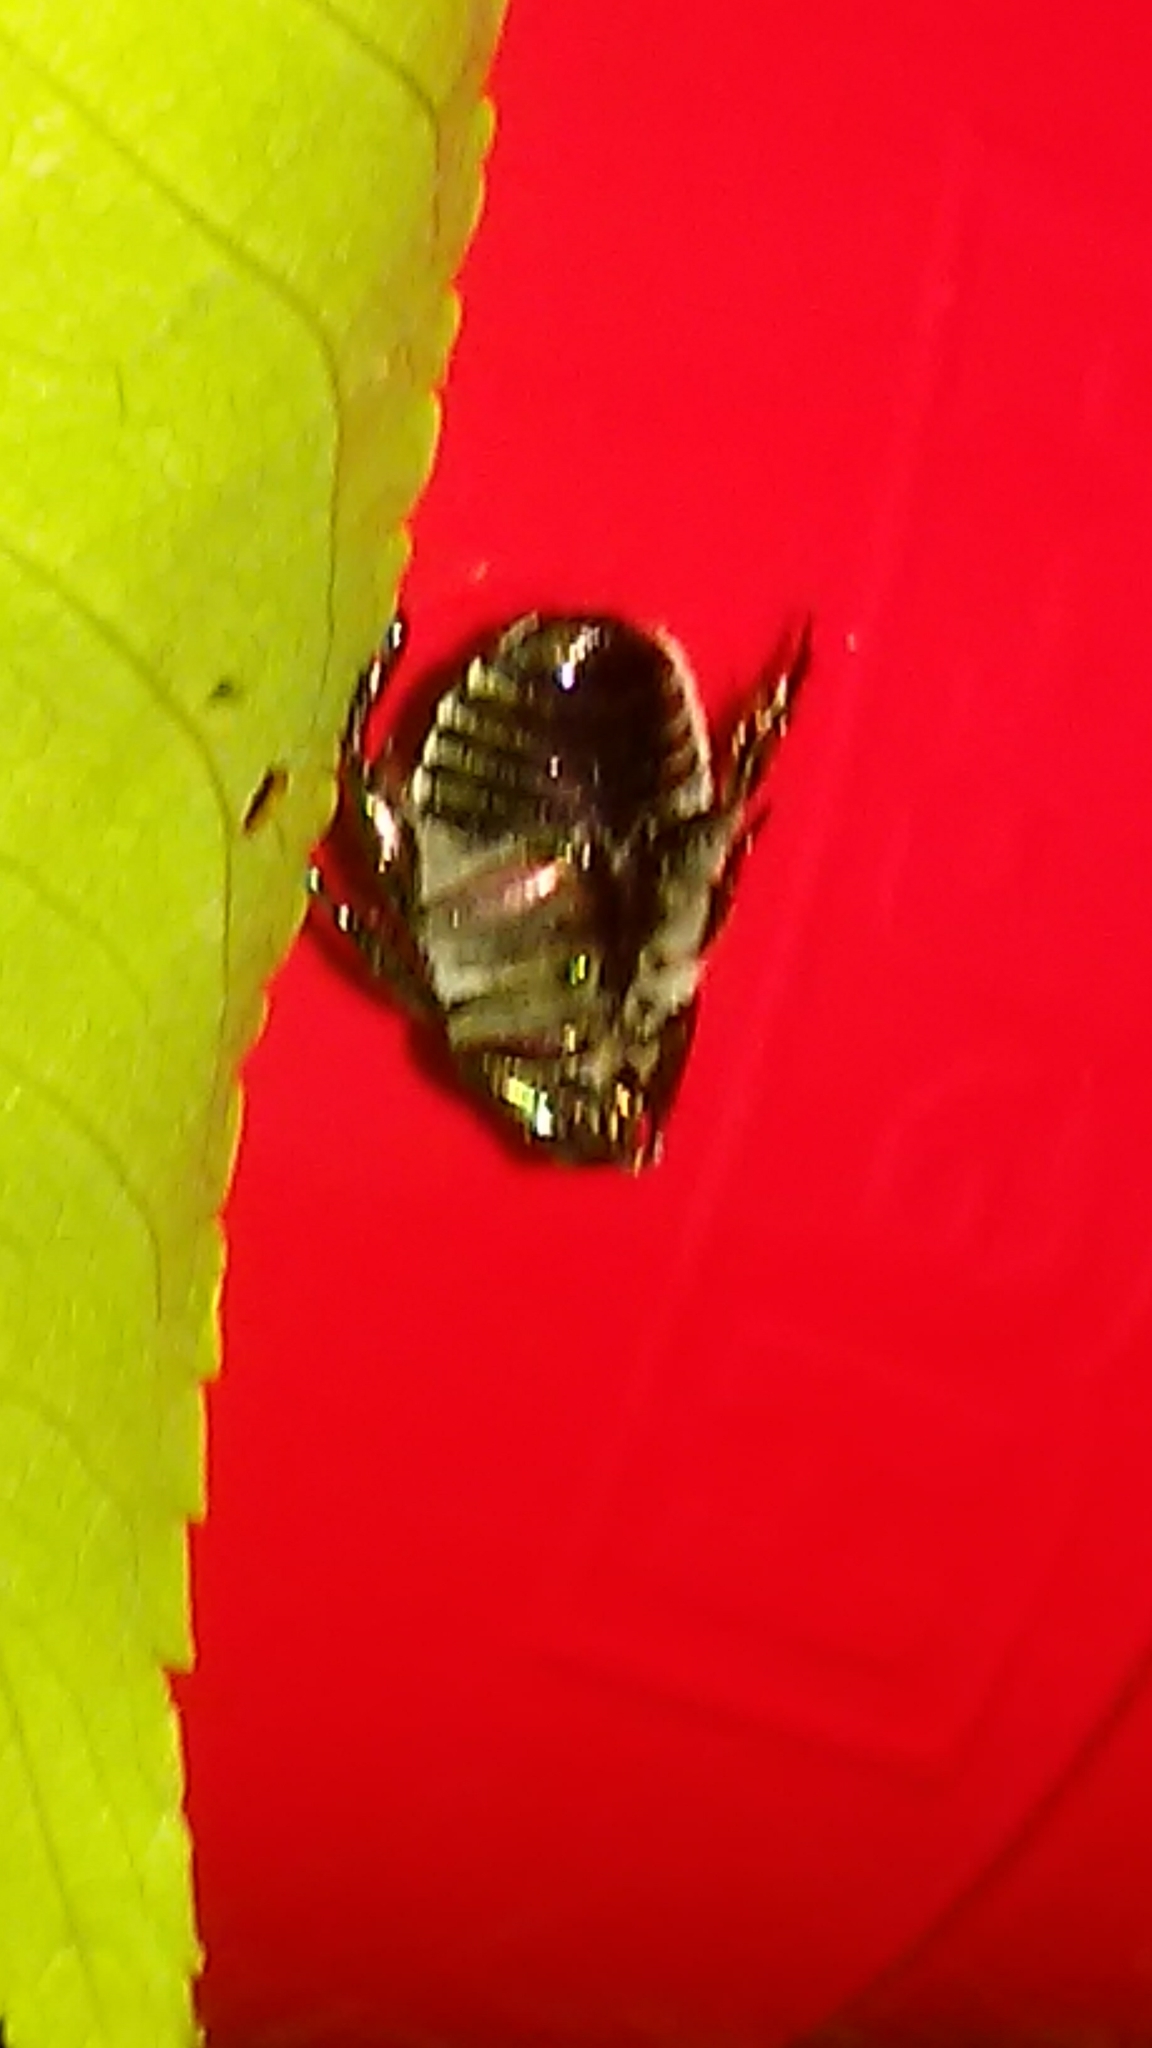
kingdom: Animalia
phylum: Arthropoda
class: Insecta
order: Coleoptera
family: Scarabaeidae
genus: Popillia
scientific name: Popillia japonica
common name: Japanese beetle
